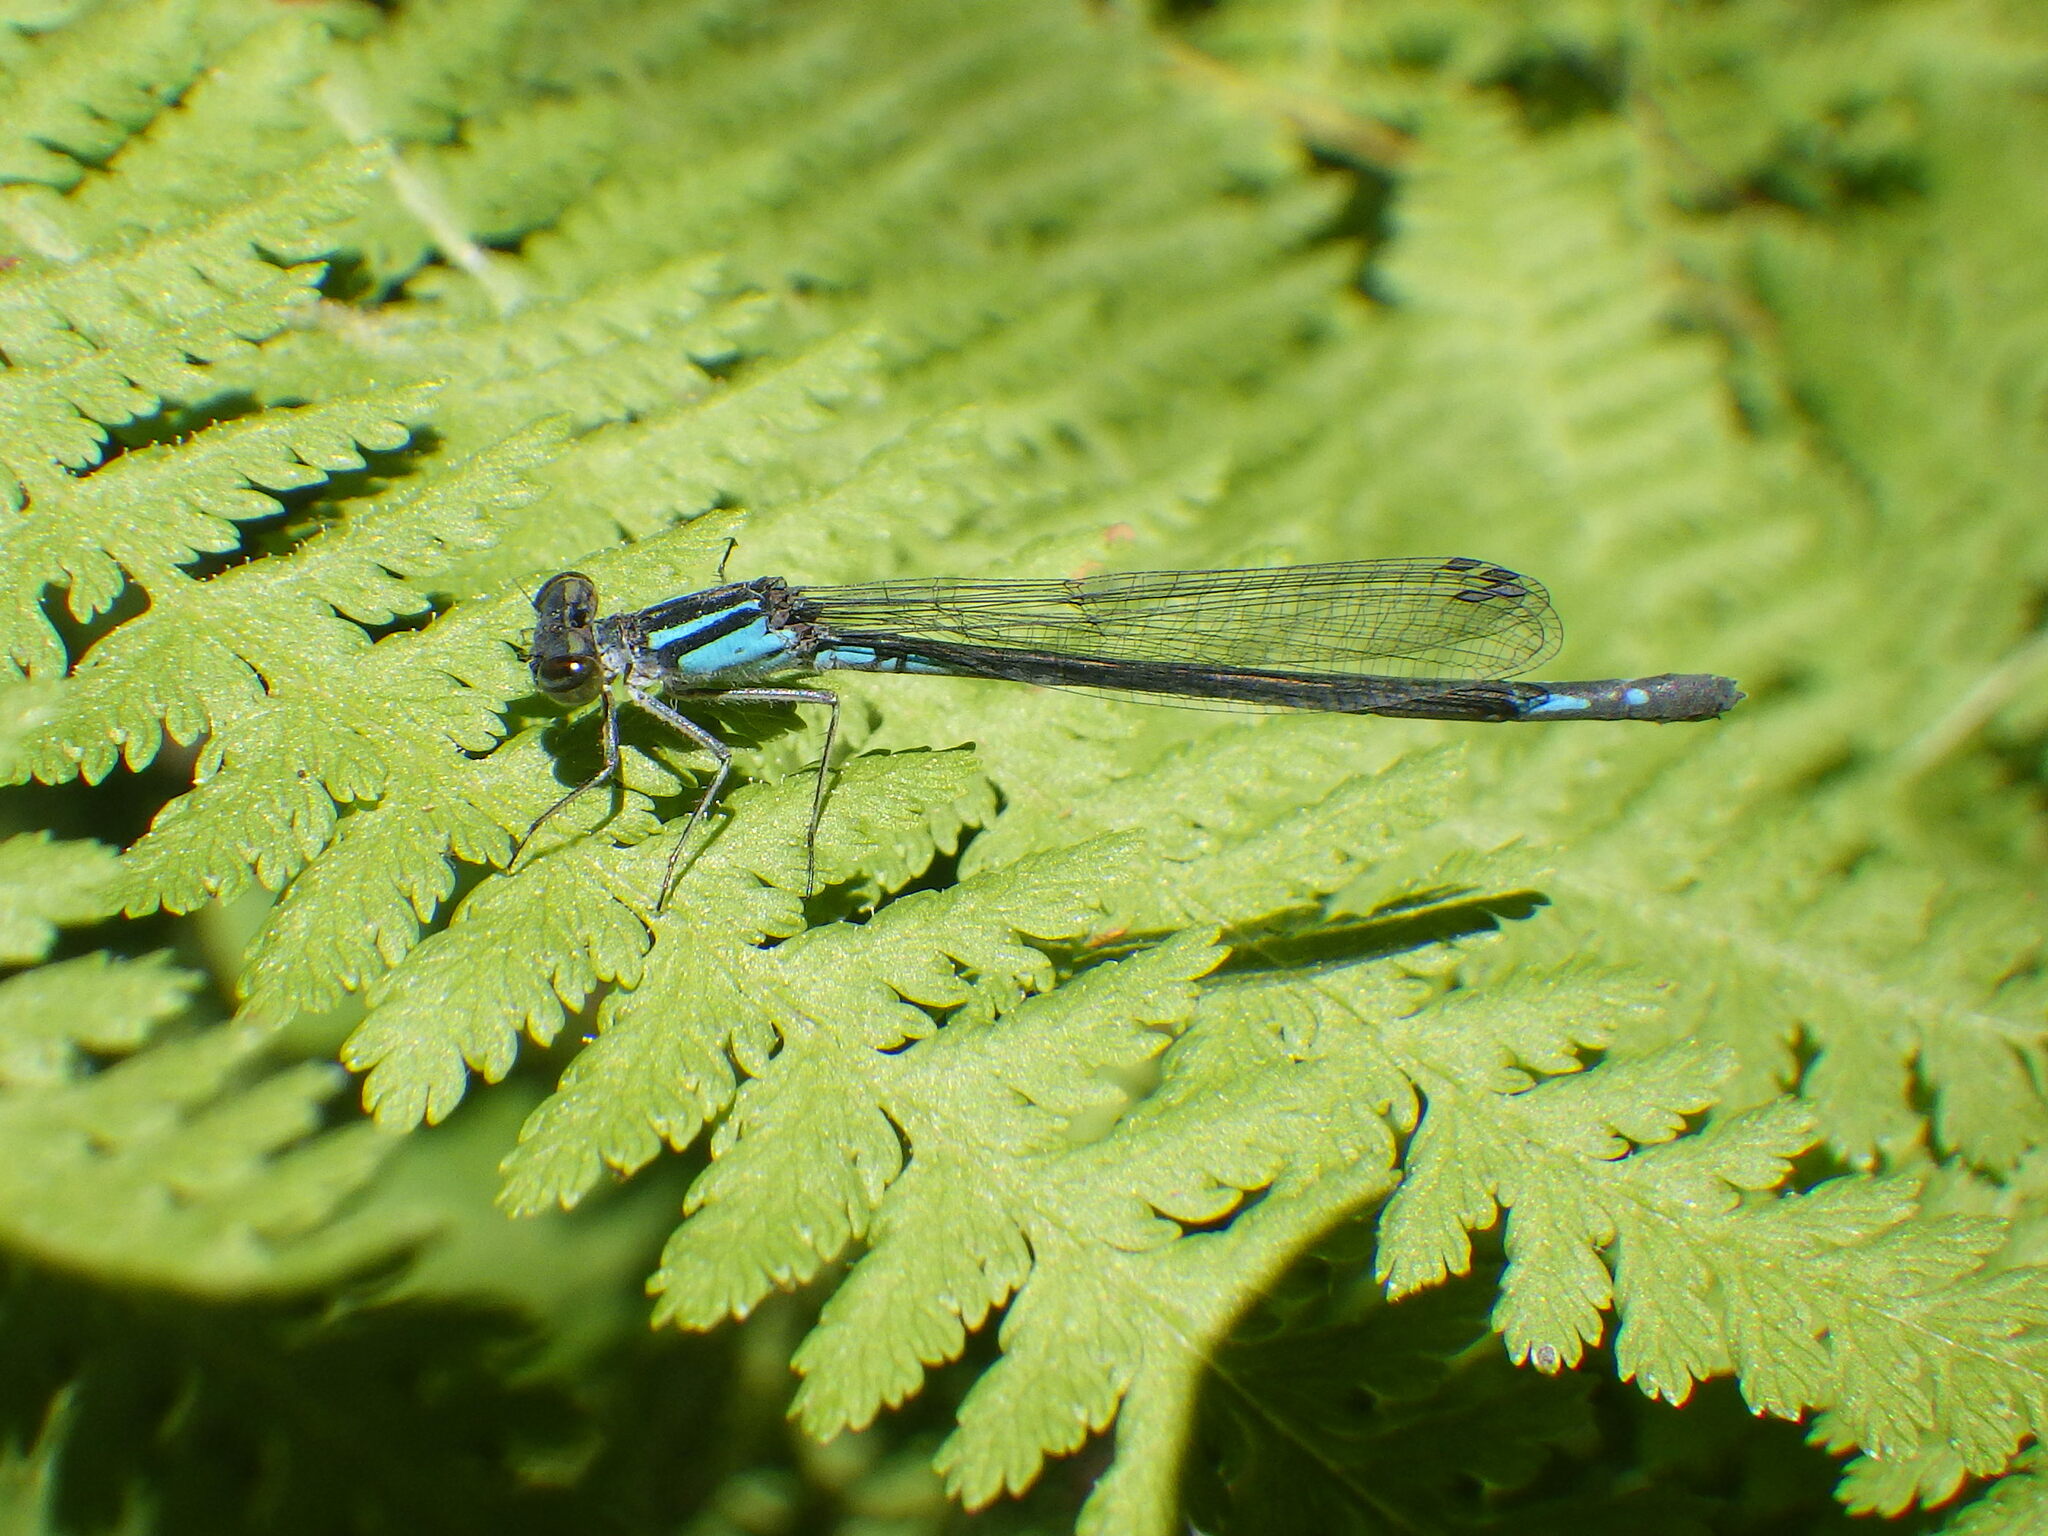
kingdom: Animalia
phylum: Arthropoda
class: Insecta
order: Odonata
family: Coenagrionidae
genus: Enallagma
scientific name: Enallagma aspersum
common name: Azure bluet
